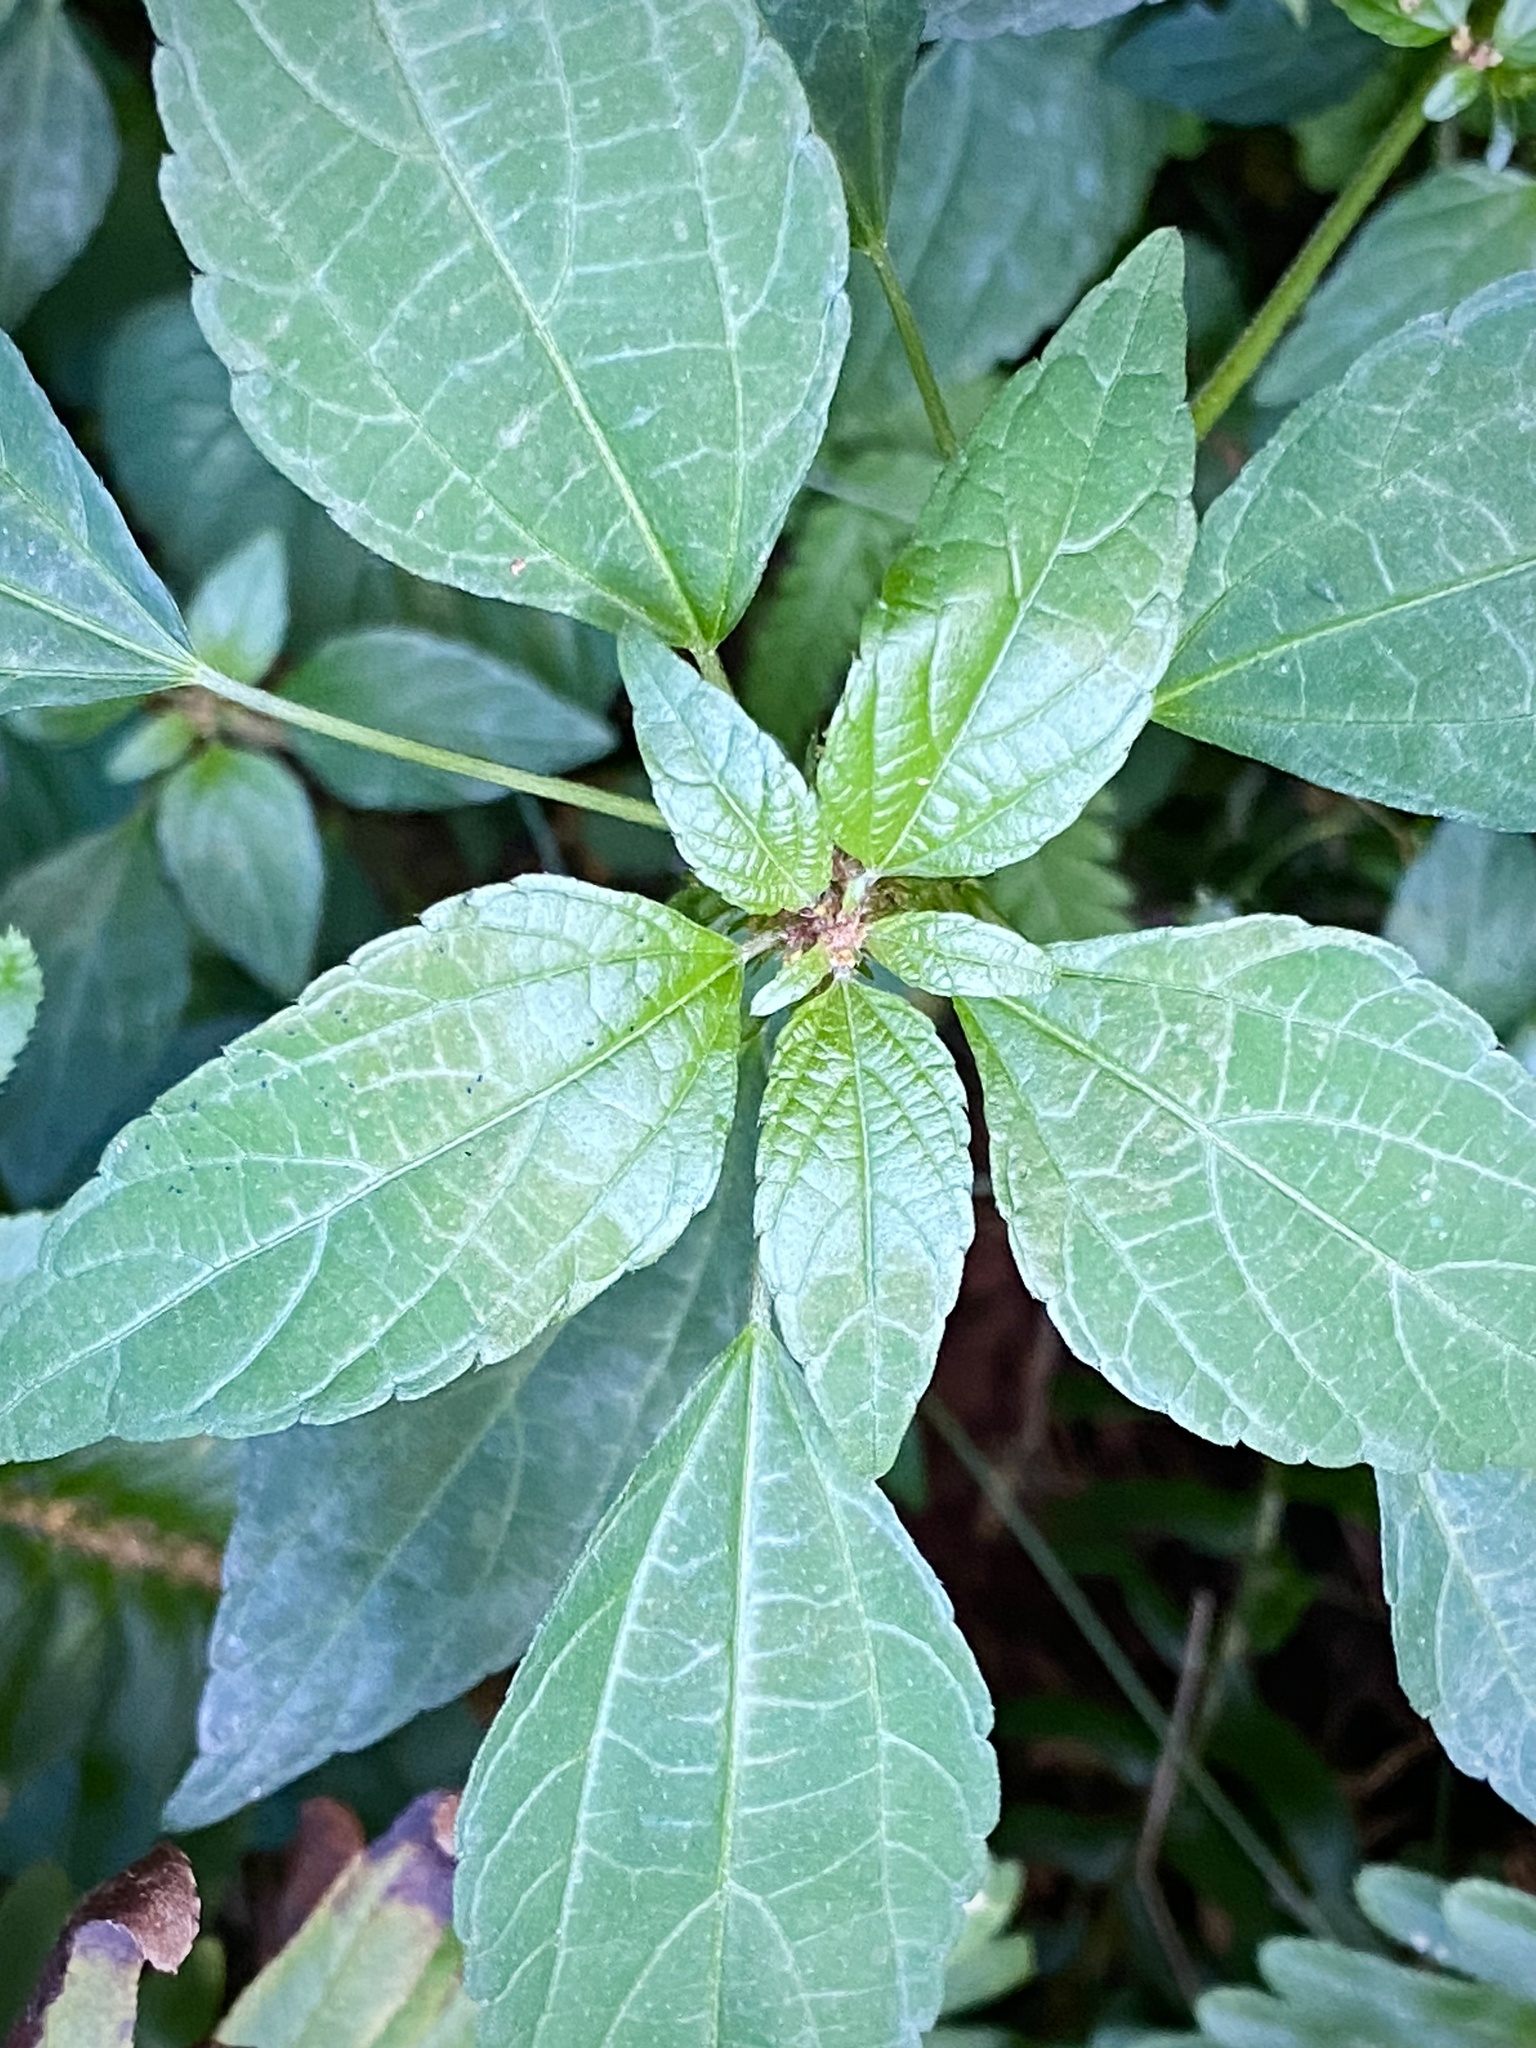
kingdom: Plantae
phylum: Tracheophyta
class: Magnoliopsida
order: Malpighiales
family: Euphorbiaceae
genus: Acalypha
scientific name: Acalypha rhomboidea
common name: Rhombic copperleaf
